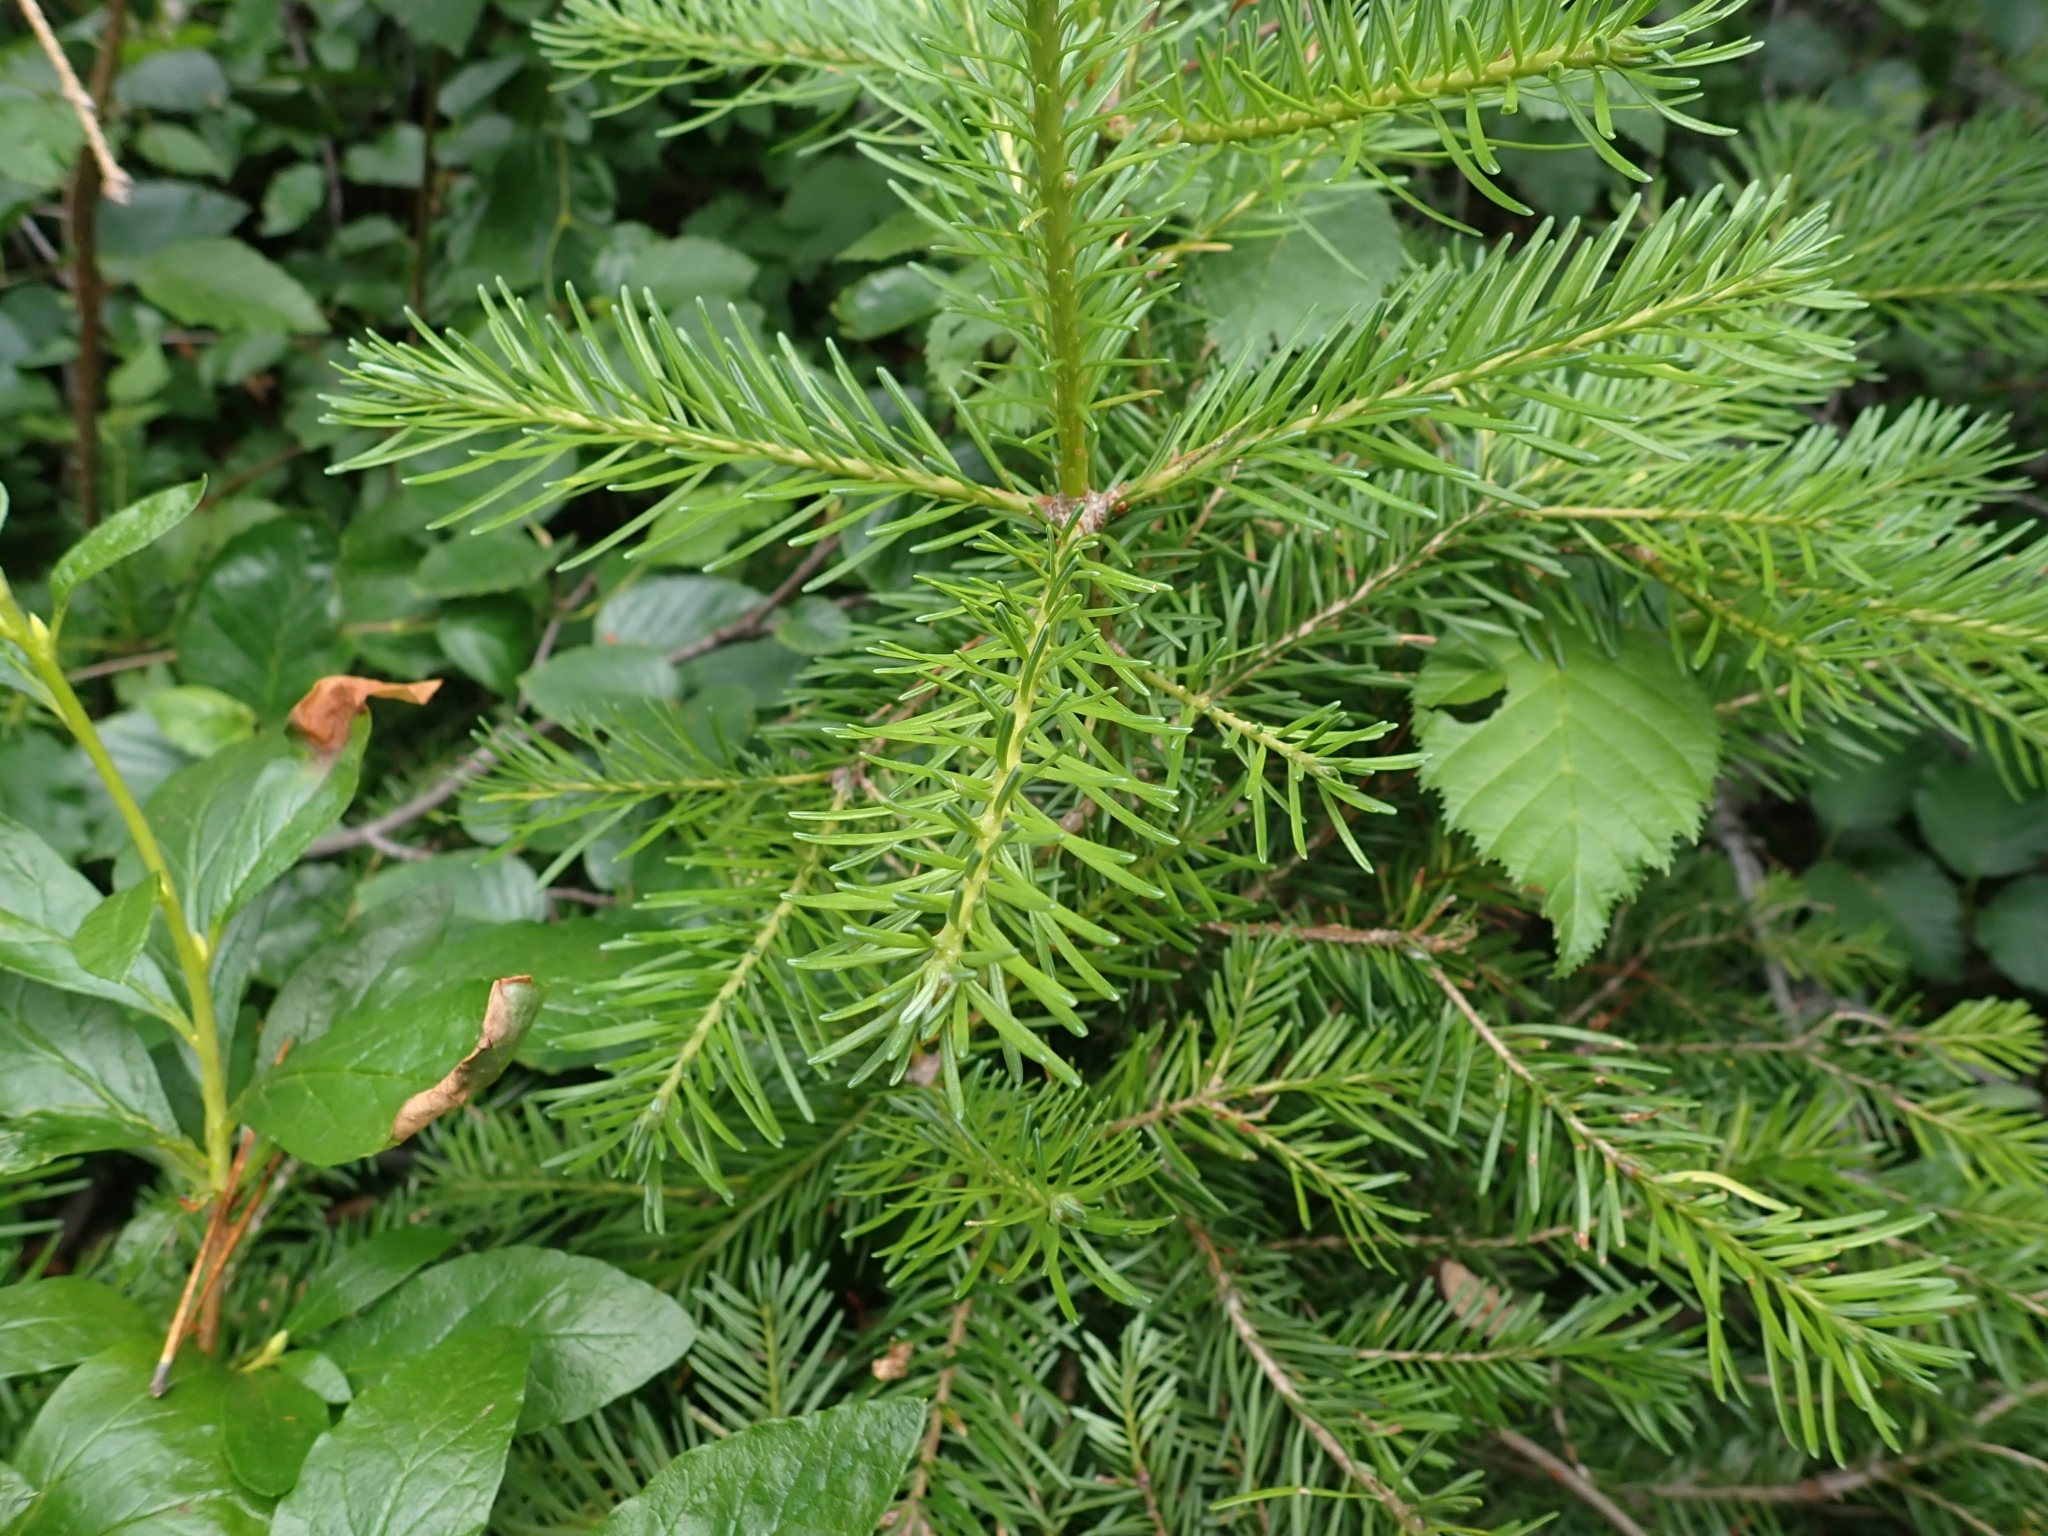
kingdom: Plantae
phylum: Tracheophyta
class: Pinopsida
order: Pinales
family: Pinaceae
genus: Abies
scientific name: Abies lasiocarpa
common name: Subalpine fir
